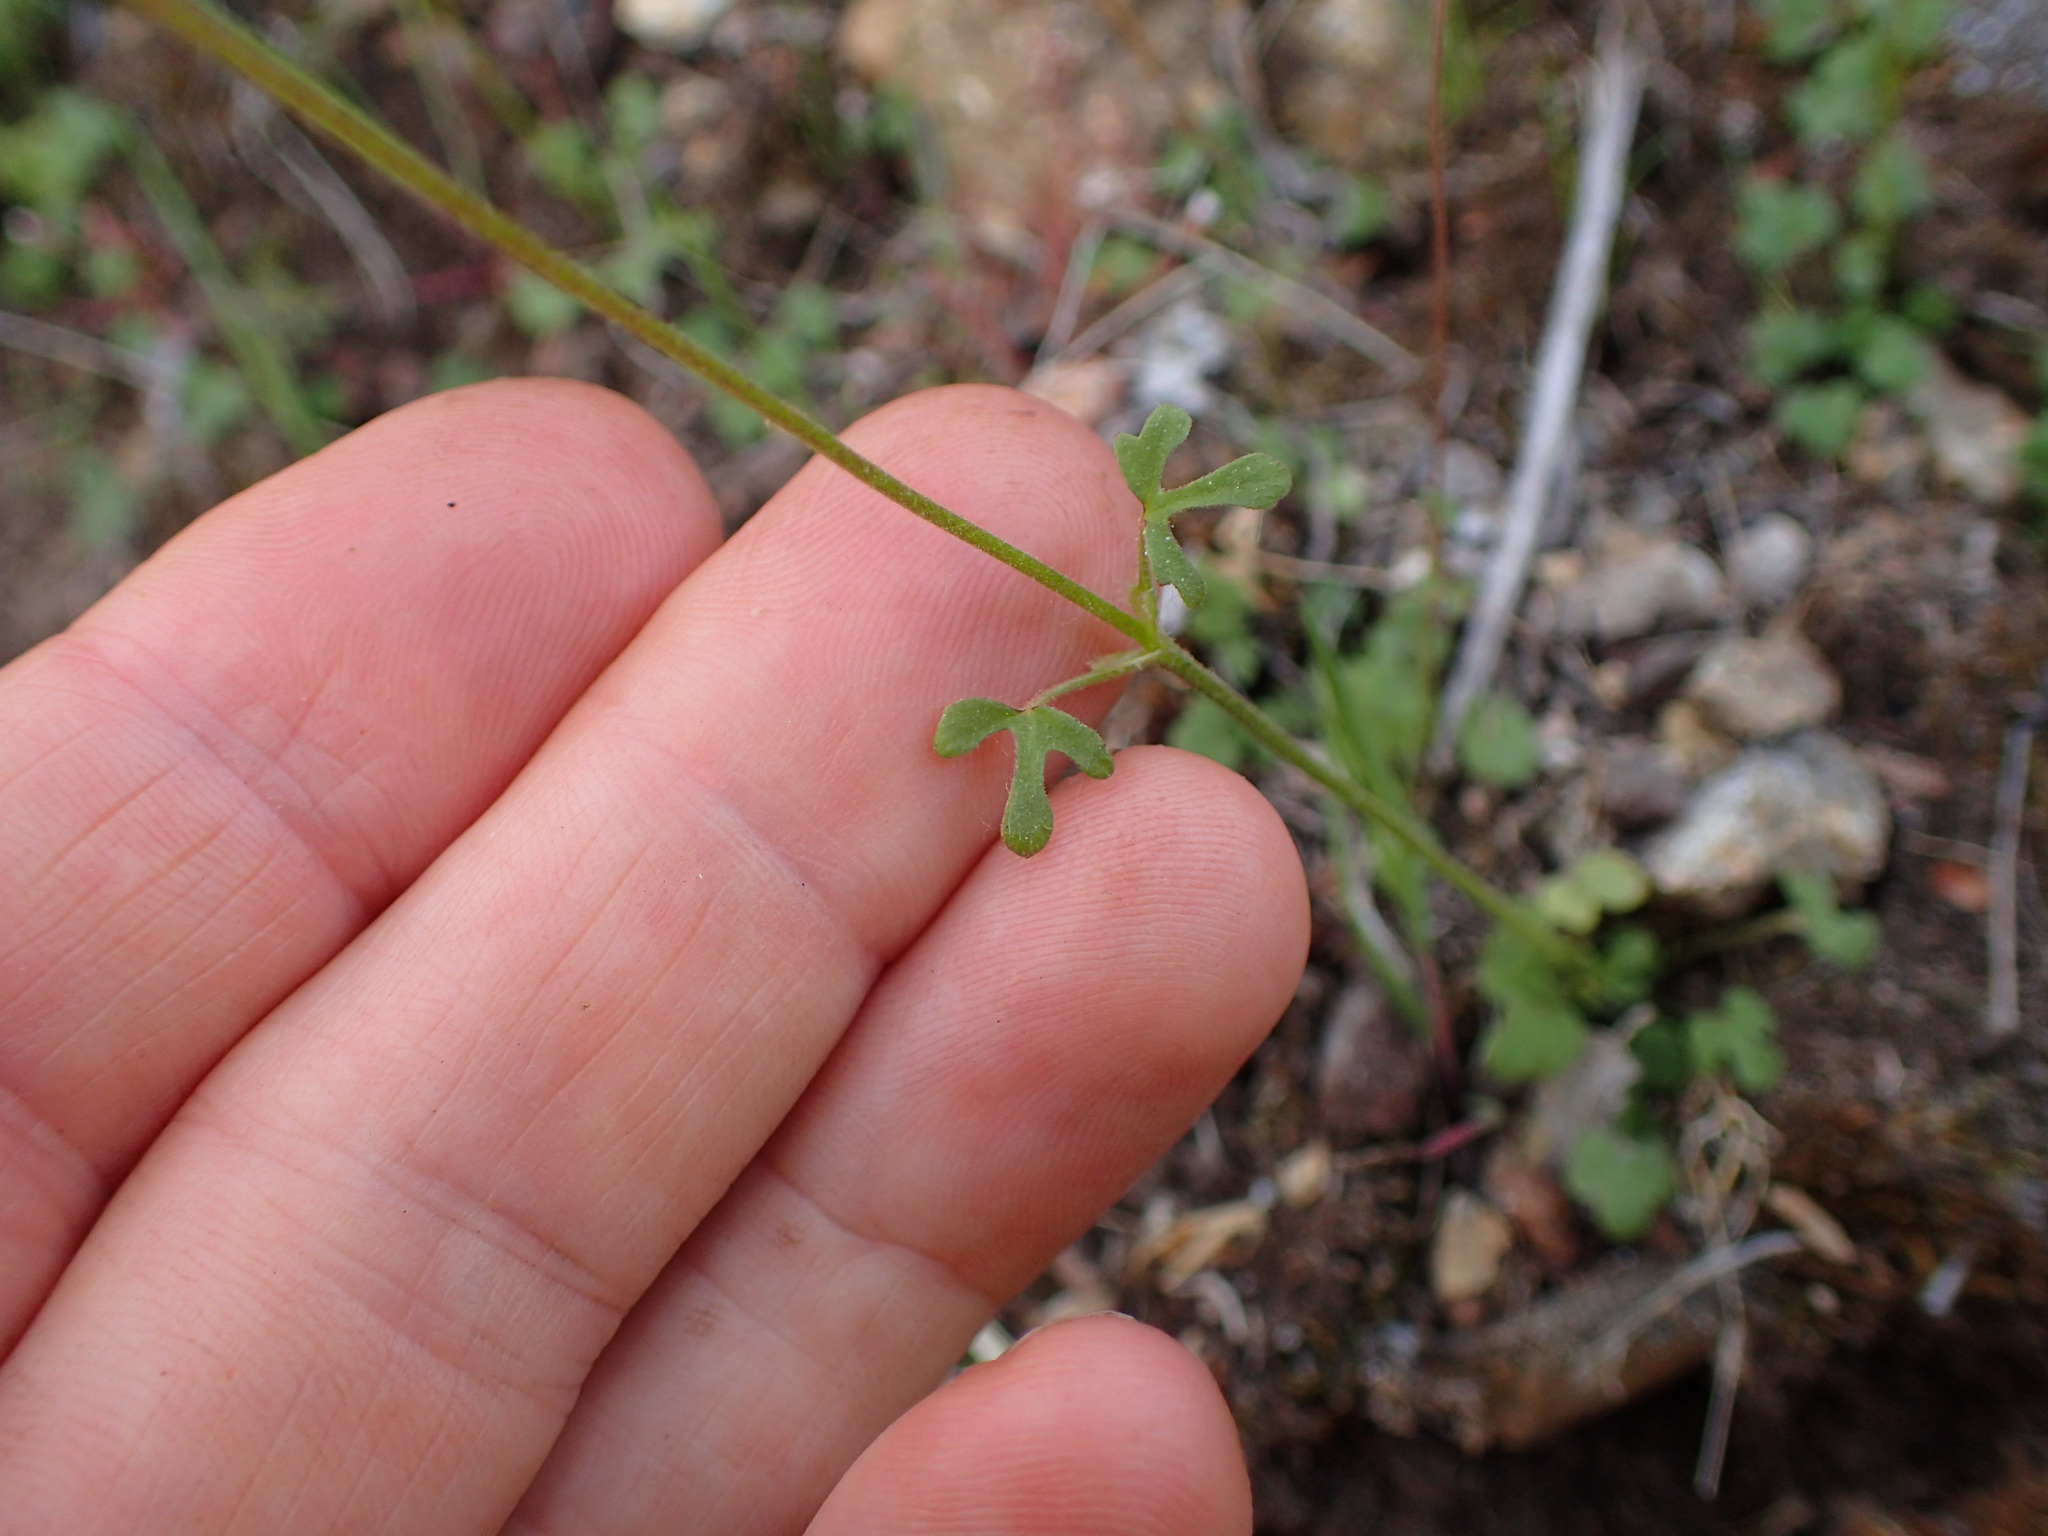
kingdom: Plantae
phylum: Tracheophyta
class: Magnoliopsida
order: Saxifragales
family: Saxifragaceae
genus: Lithophragma
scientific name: Lithophragma cymbalaria
